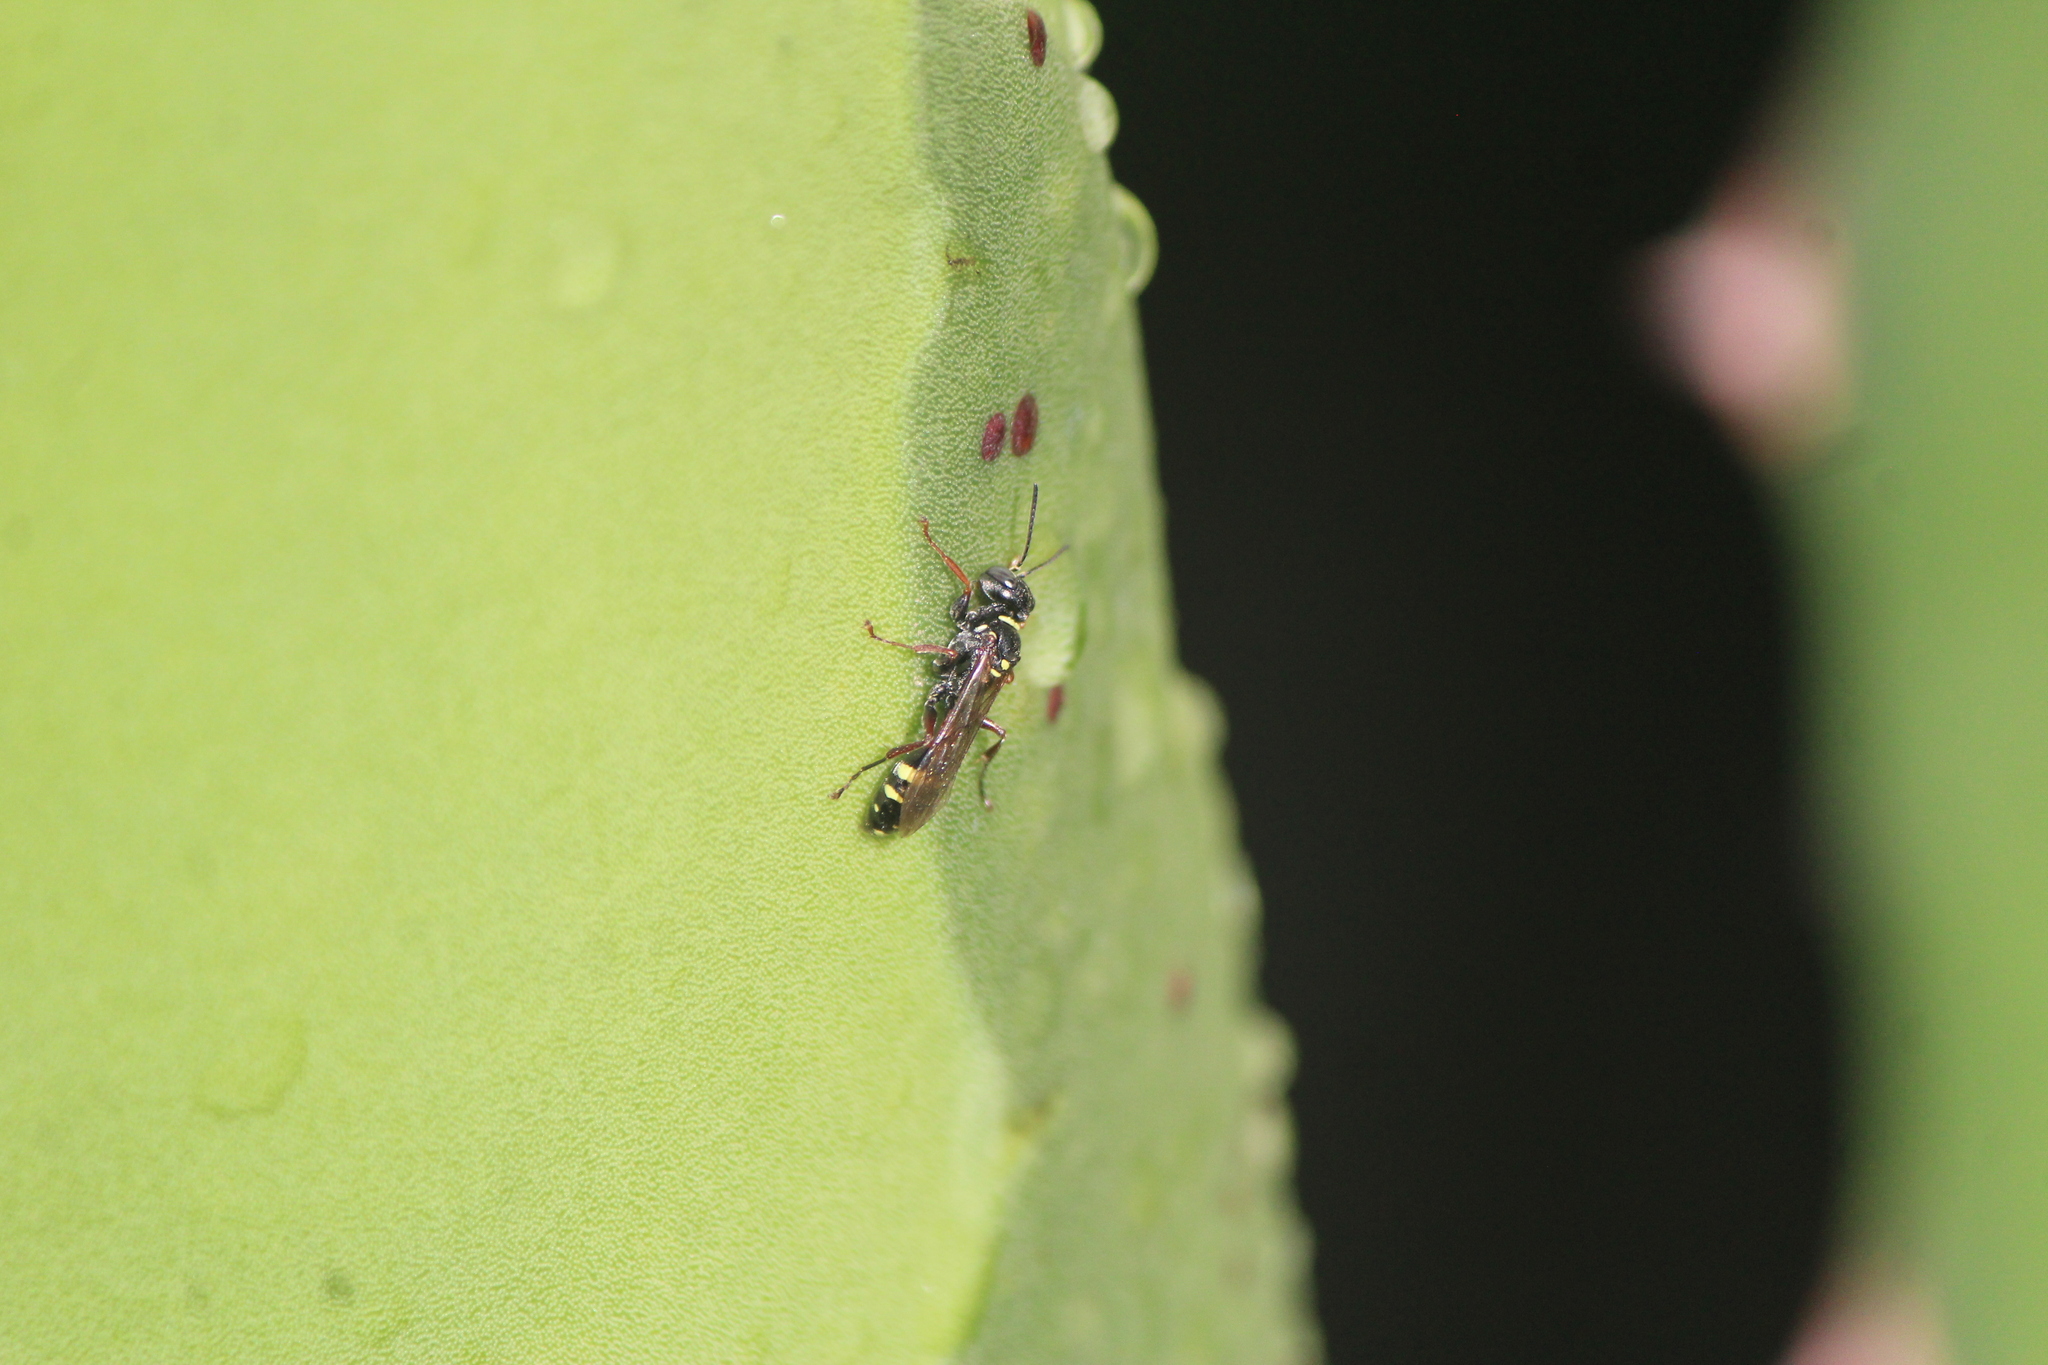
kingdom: Animalia
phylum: Arthropoda
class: Insecta
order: Hymenoptera
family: Crabronidae
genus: Mellinus
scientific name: Mellinus rufinodus
